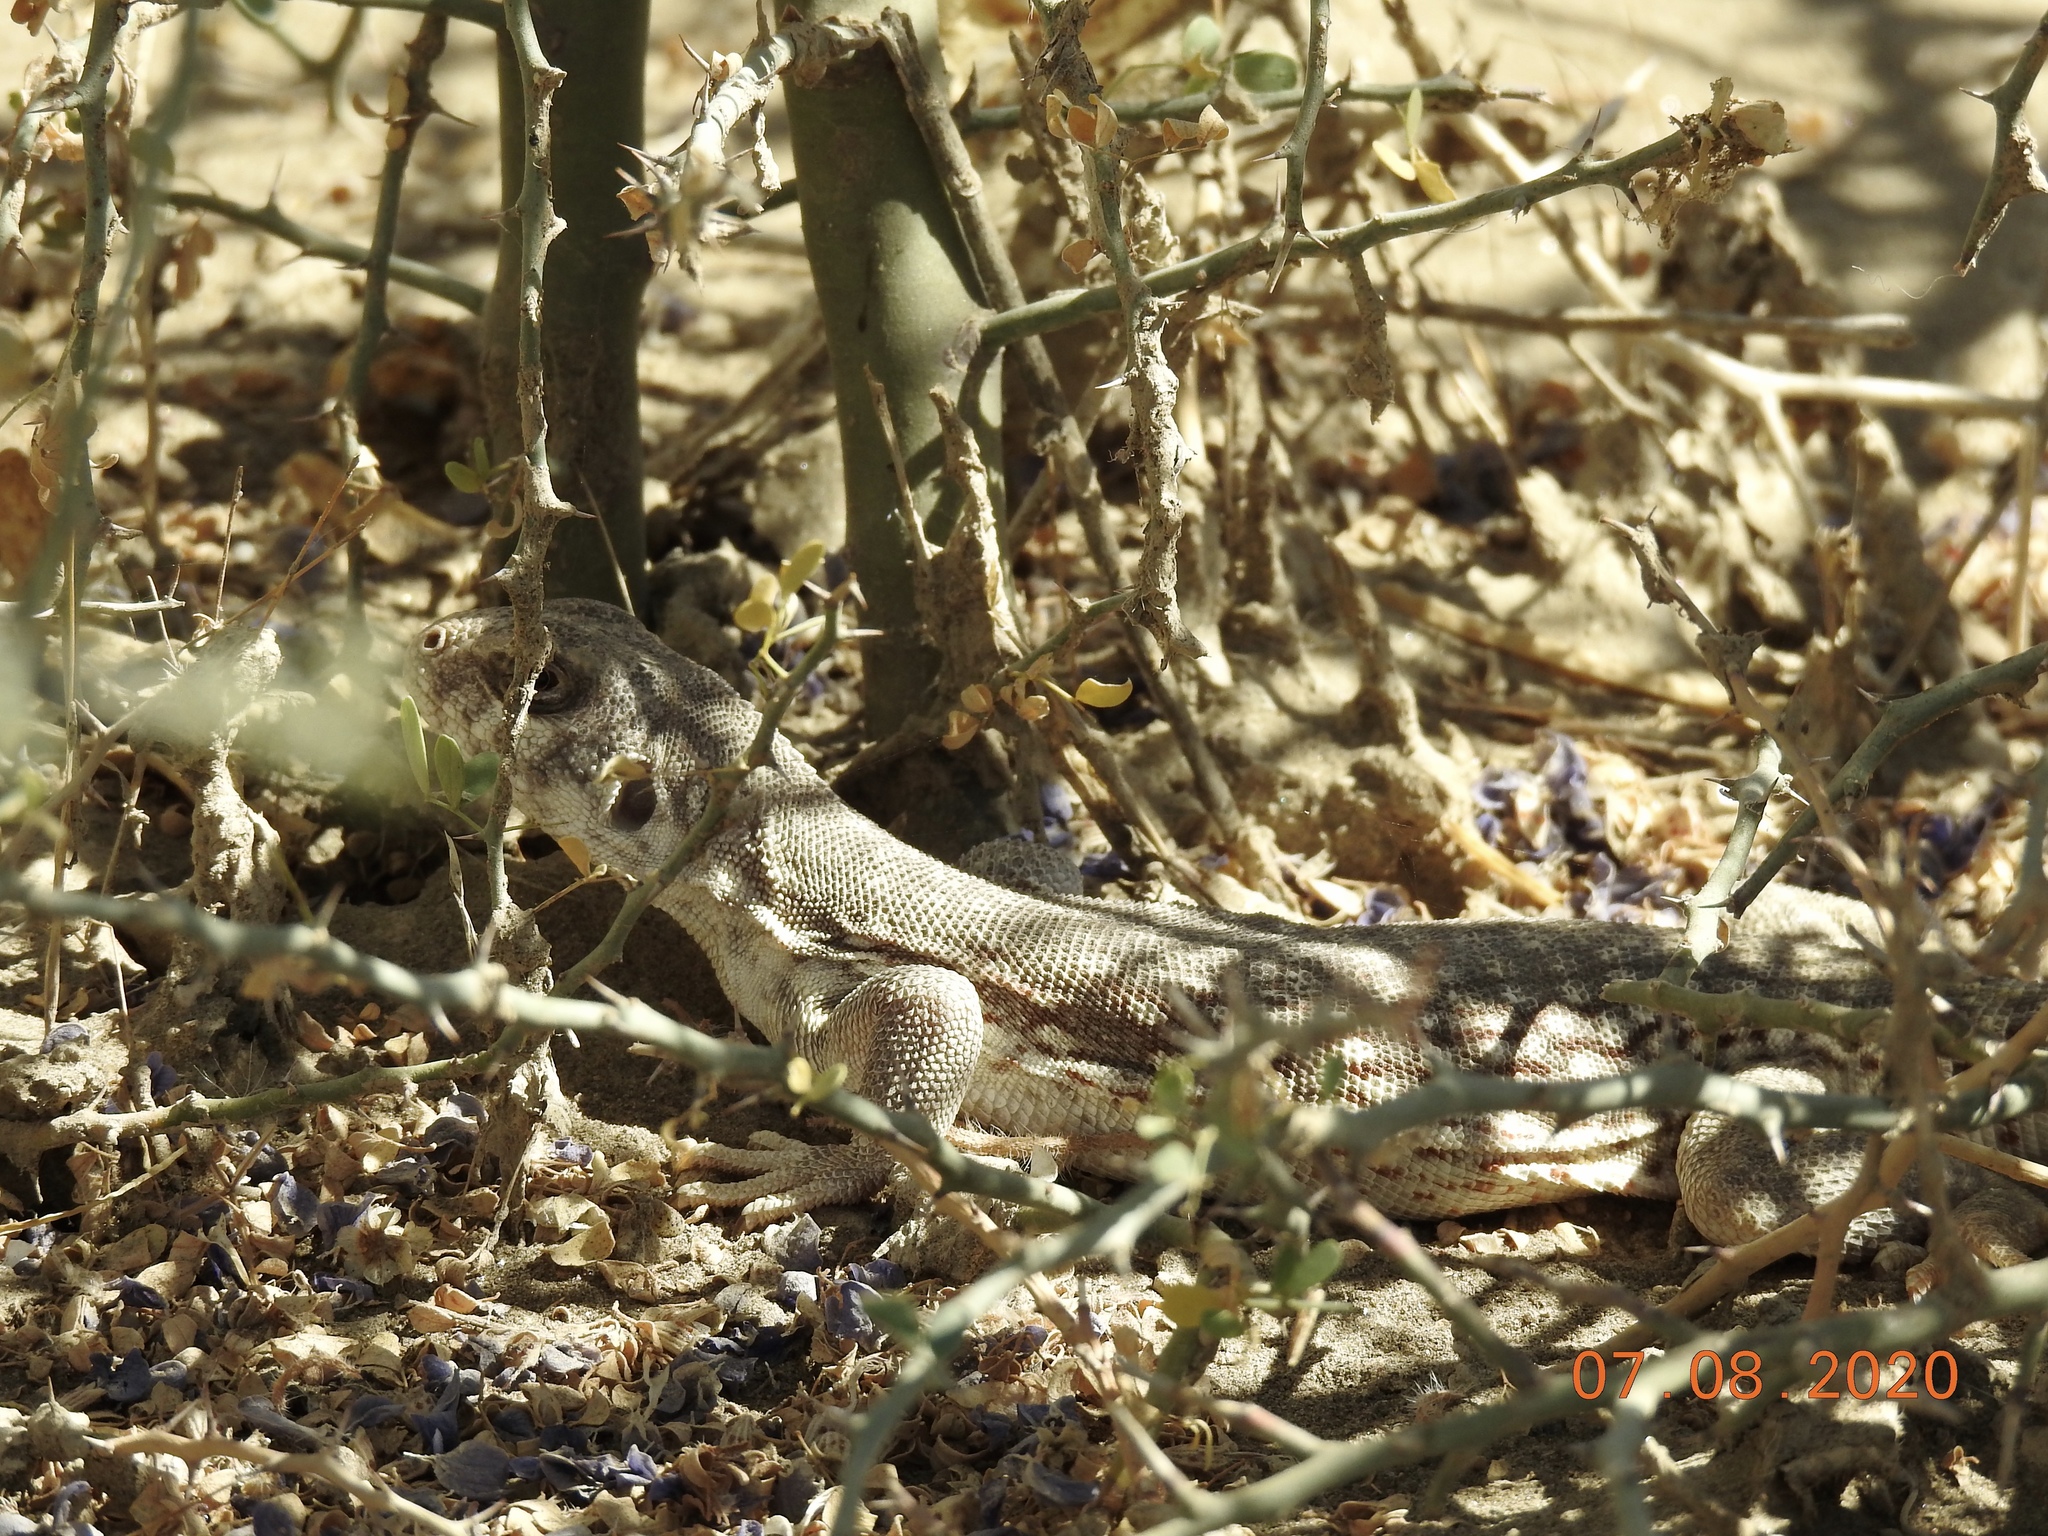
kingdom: Animalia
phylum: Chordata
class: Squamata
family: Iguanidae
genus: Dipsosaurus
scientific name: Dipsosaurus dorsalis
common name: Desert iguana
